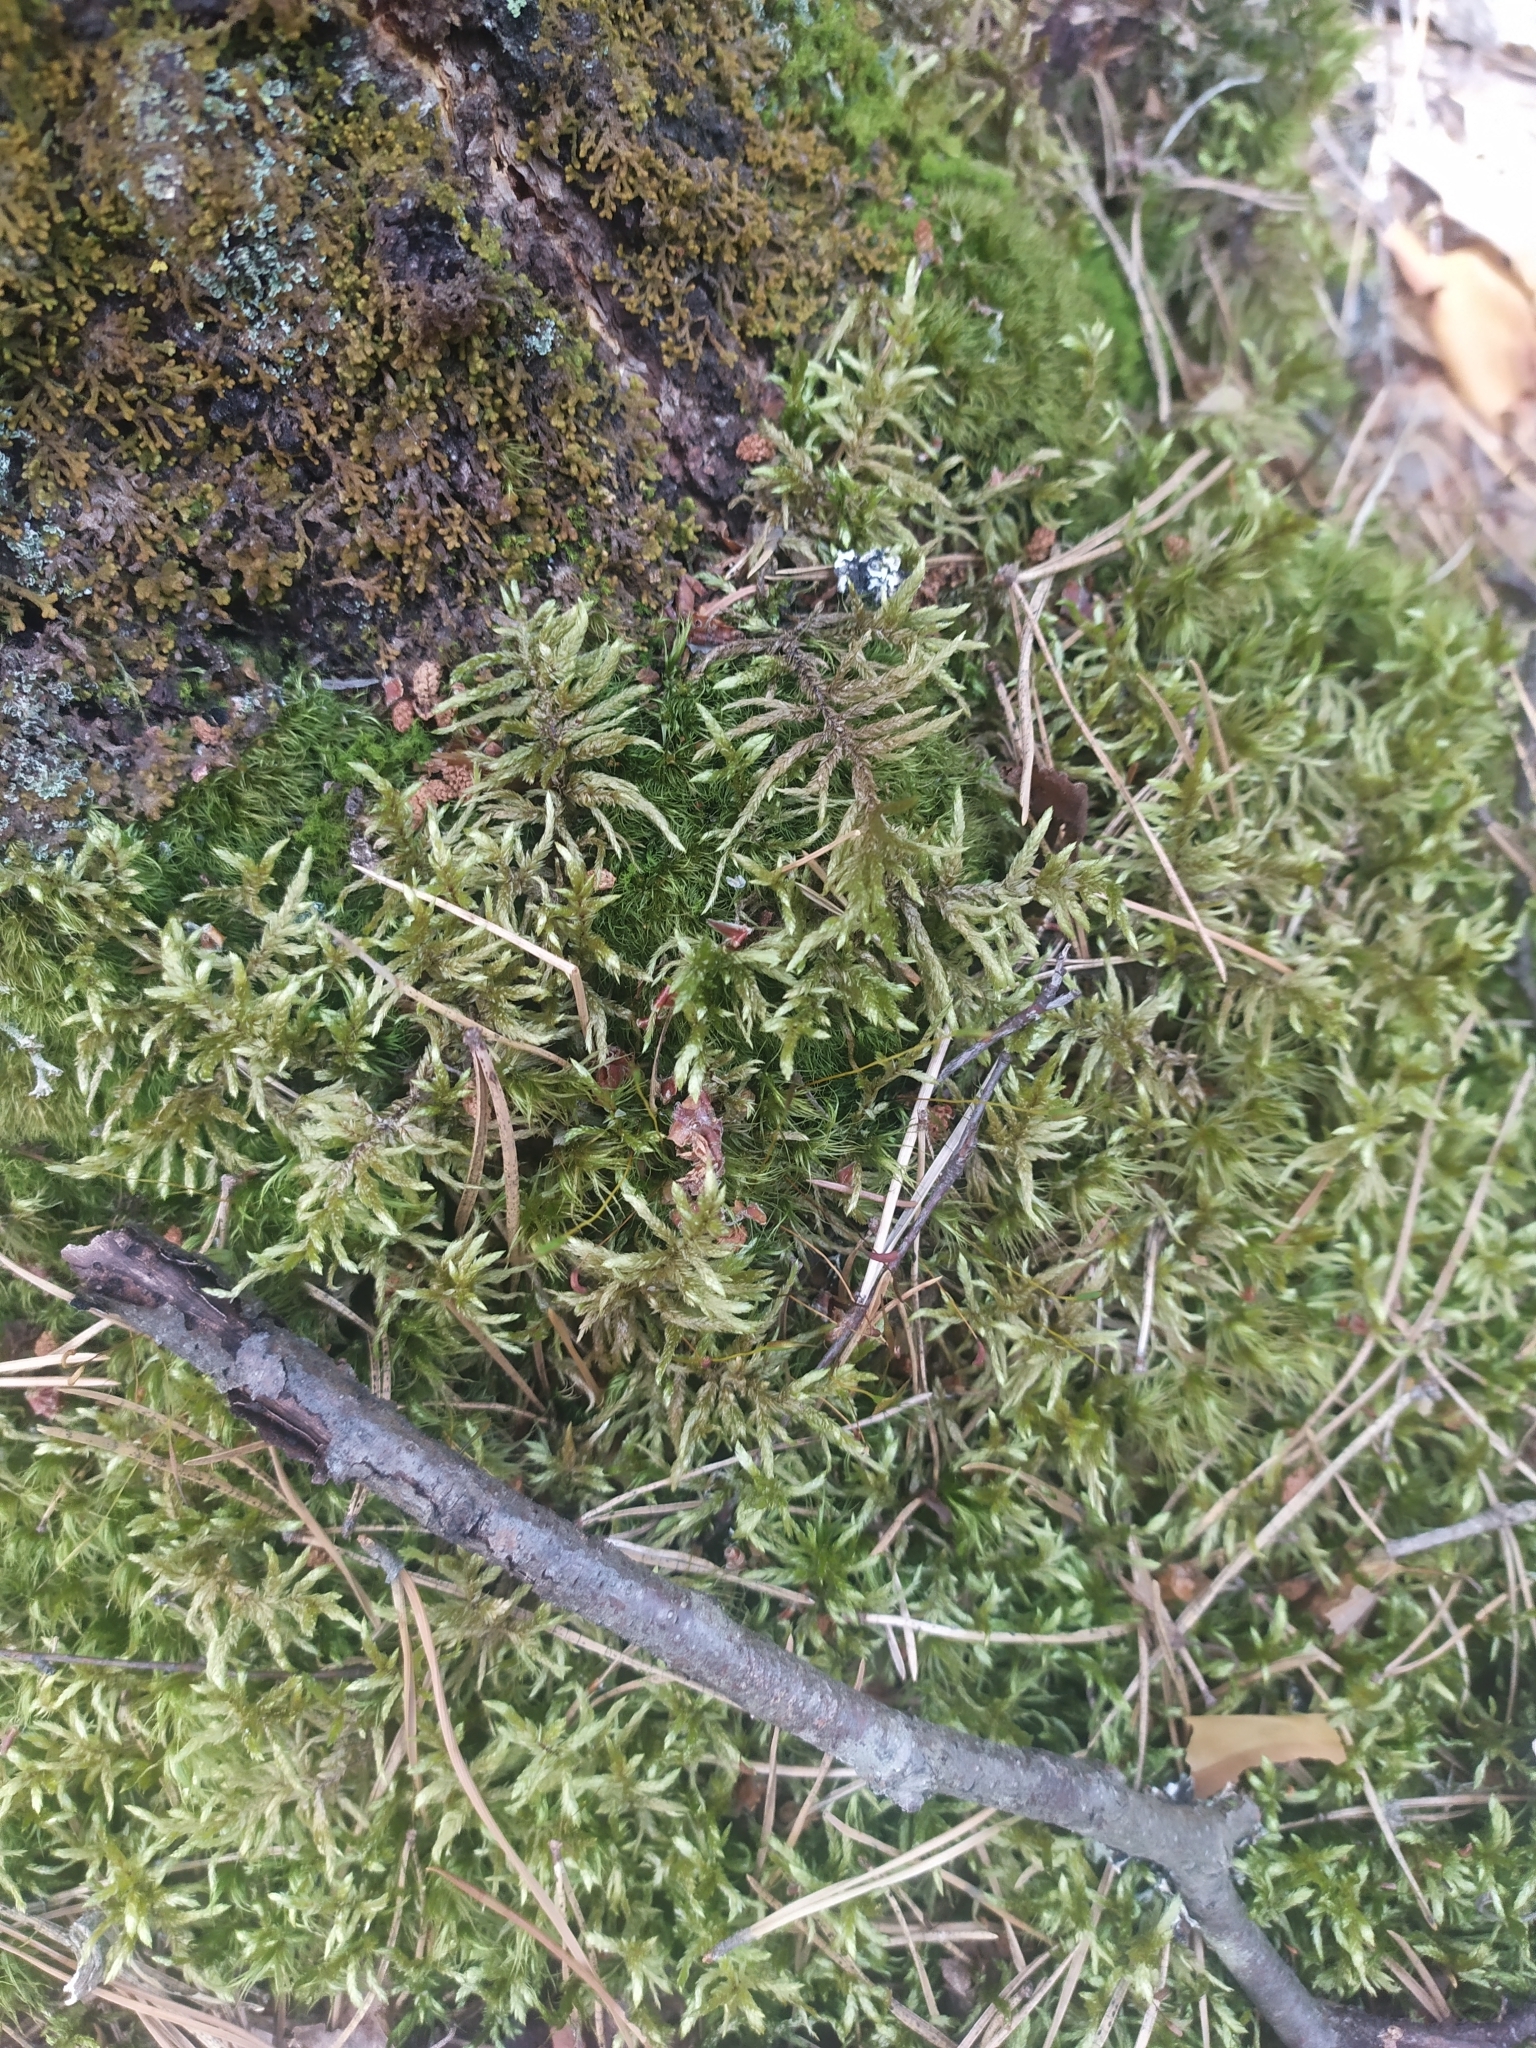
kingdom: Plantae
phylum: Bryophyta
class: Bryopsida
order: Hypnales
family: Hylocomiaceae
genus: Pleurozium
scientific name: Pleurozium schreberi
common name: Red-stemmed feather moss
